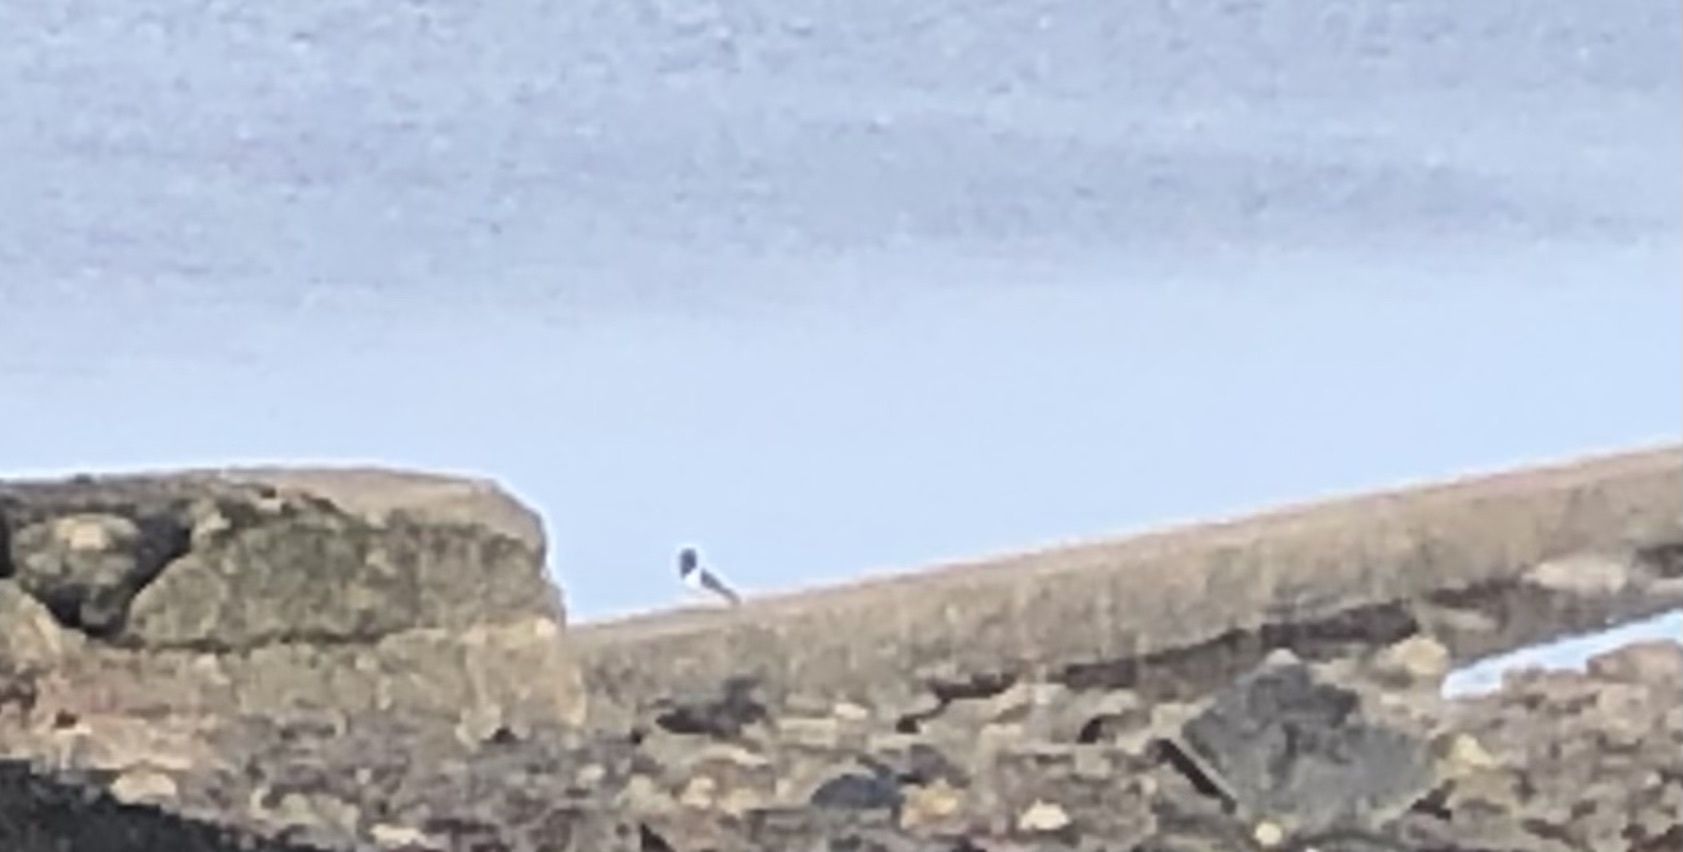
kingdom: Animalia
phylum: Chordata
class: Aves
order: Charadriiformes
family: Haematopodidae
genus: Haematopus
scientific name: Haematopus ostralegus
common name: Eurasian oystercatcher
